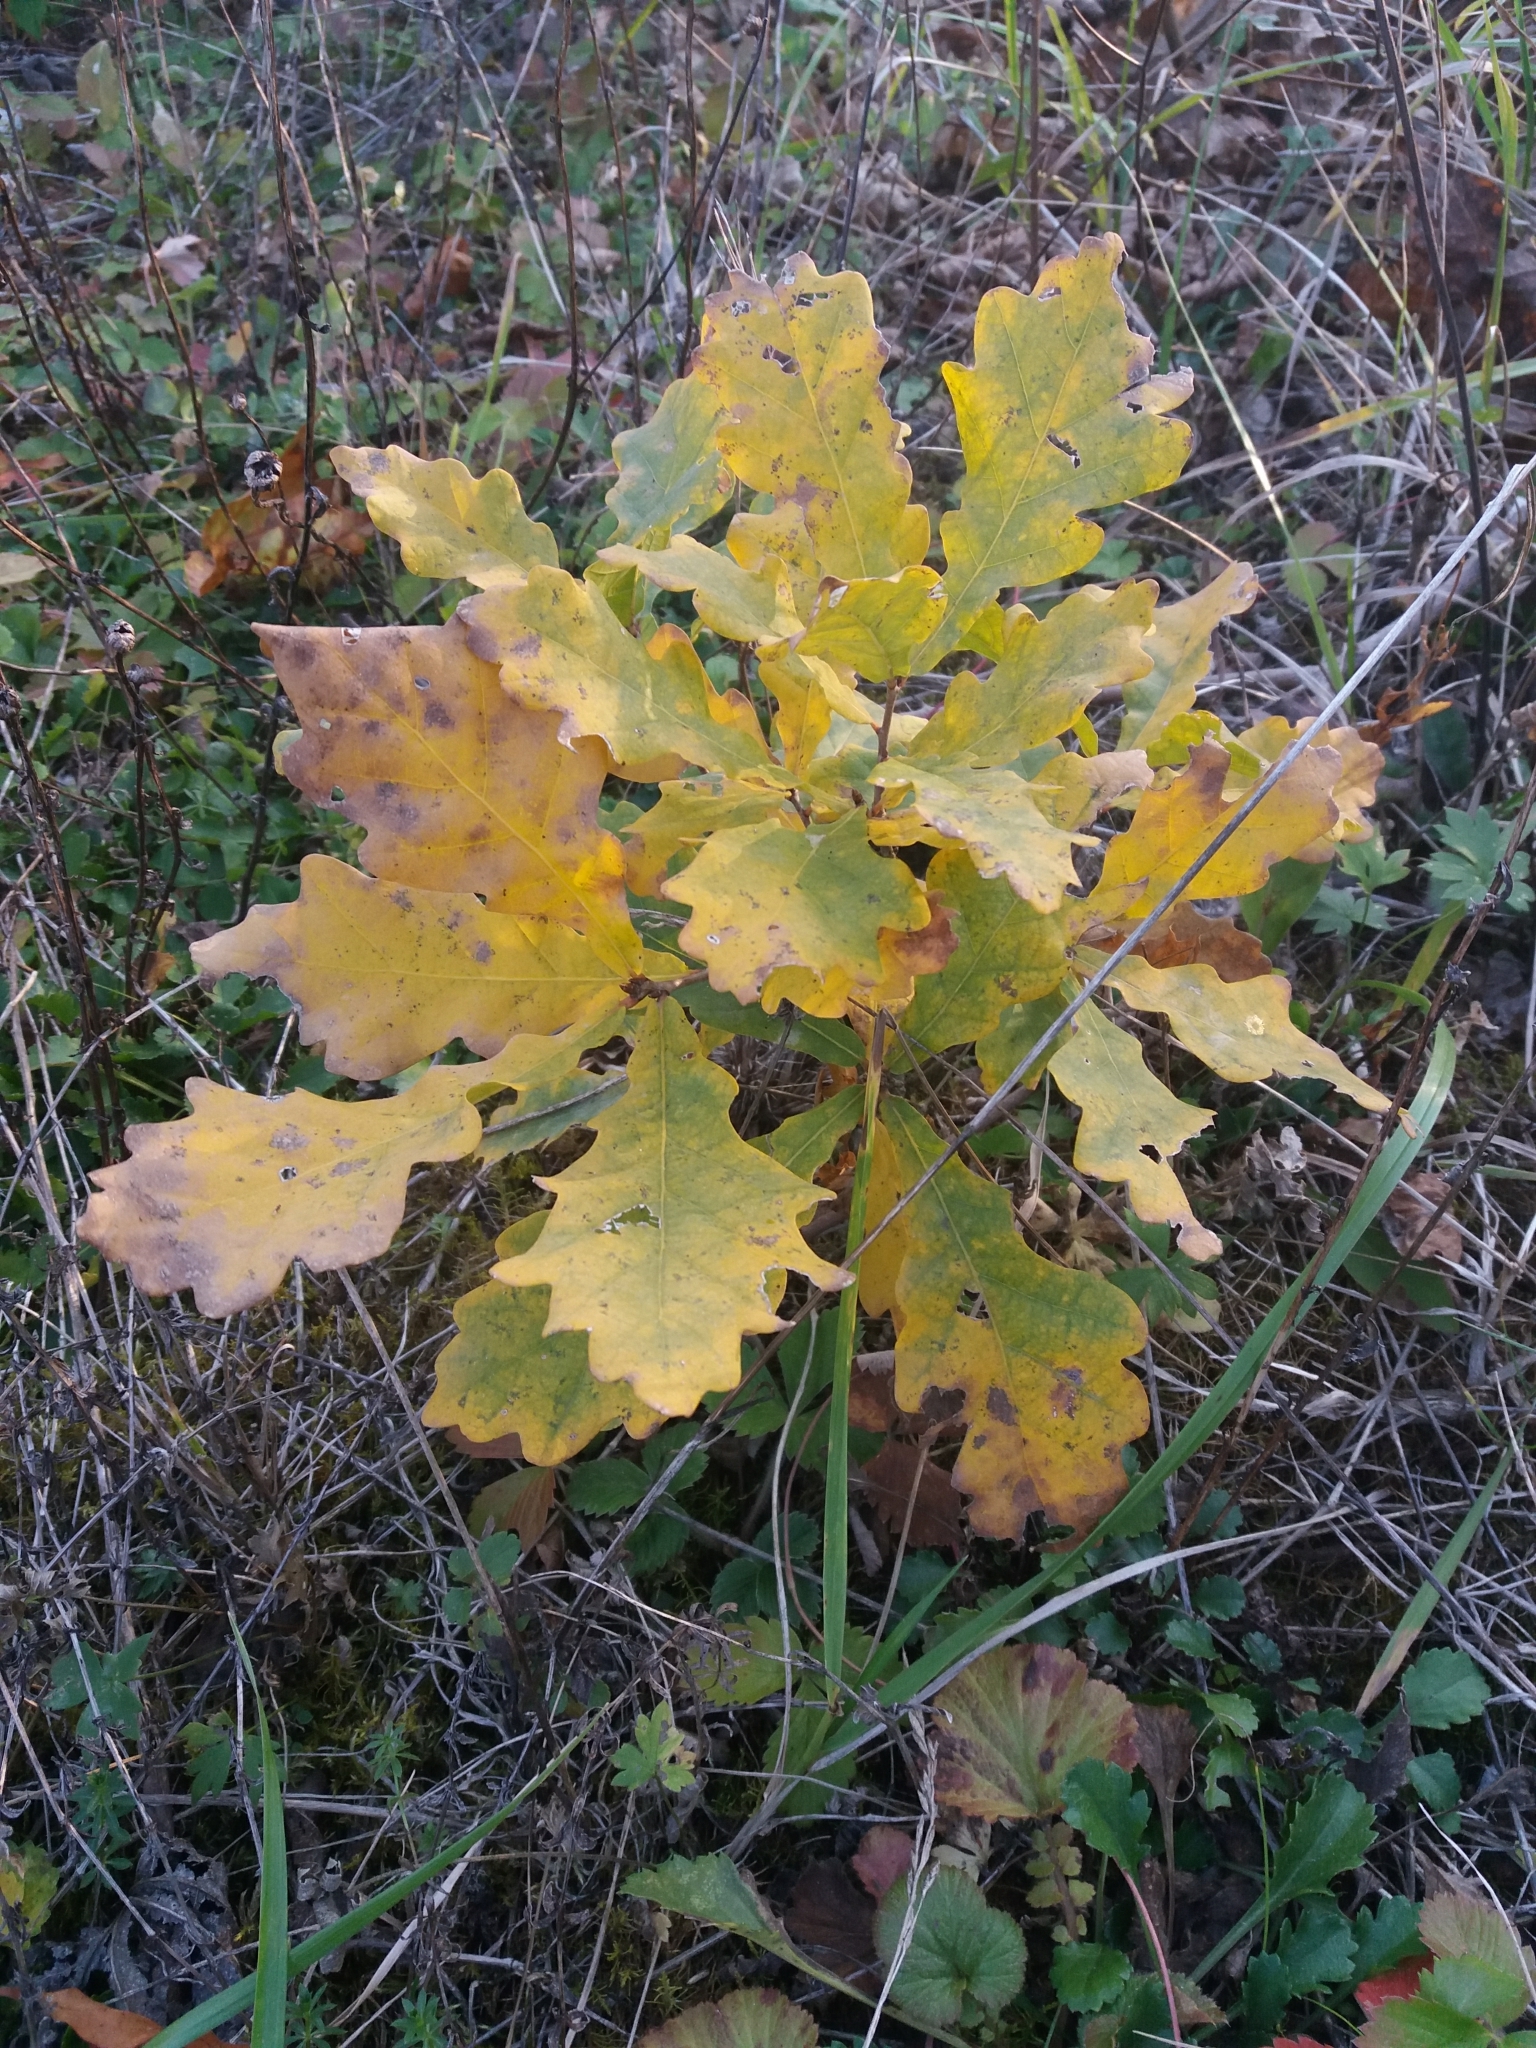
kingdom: Plantae
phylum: Tracheophyta
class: Magnoliopsida
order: Fagales
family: Fagaceae
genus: Quercus
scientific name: Quercus robur
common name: Pedunculate oak
